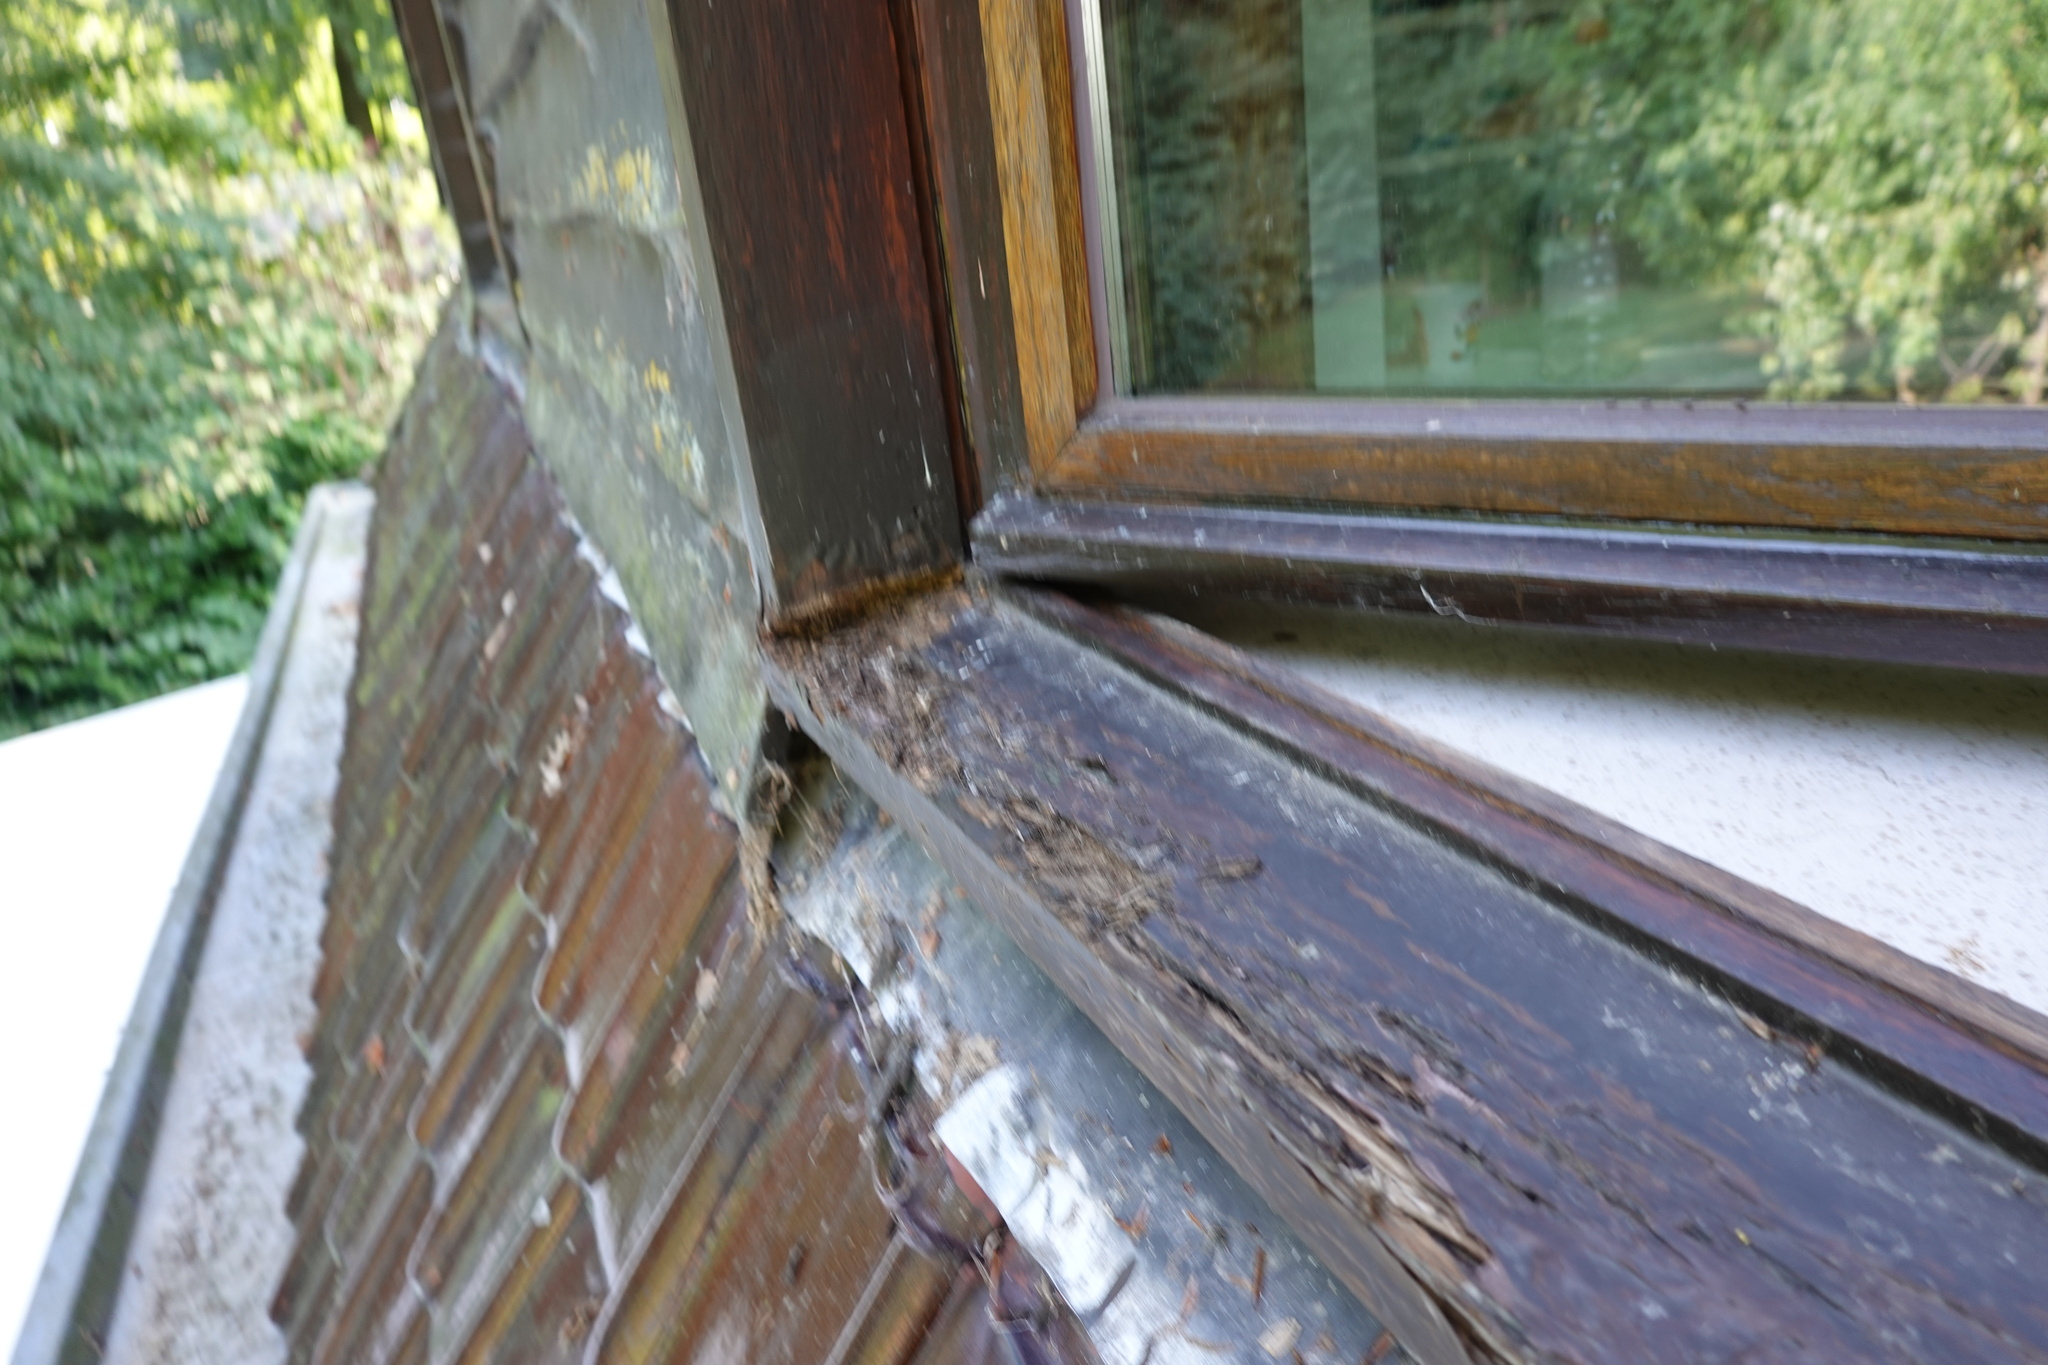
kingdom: Animalia
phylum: Arthropoda
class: Insecta
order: Hymenoptera
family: Vespidae
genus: Vespa
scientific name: Vespa velutina
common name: Asian hornet
